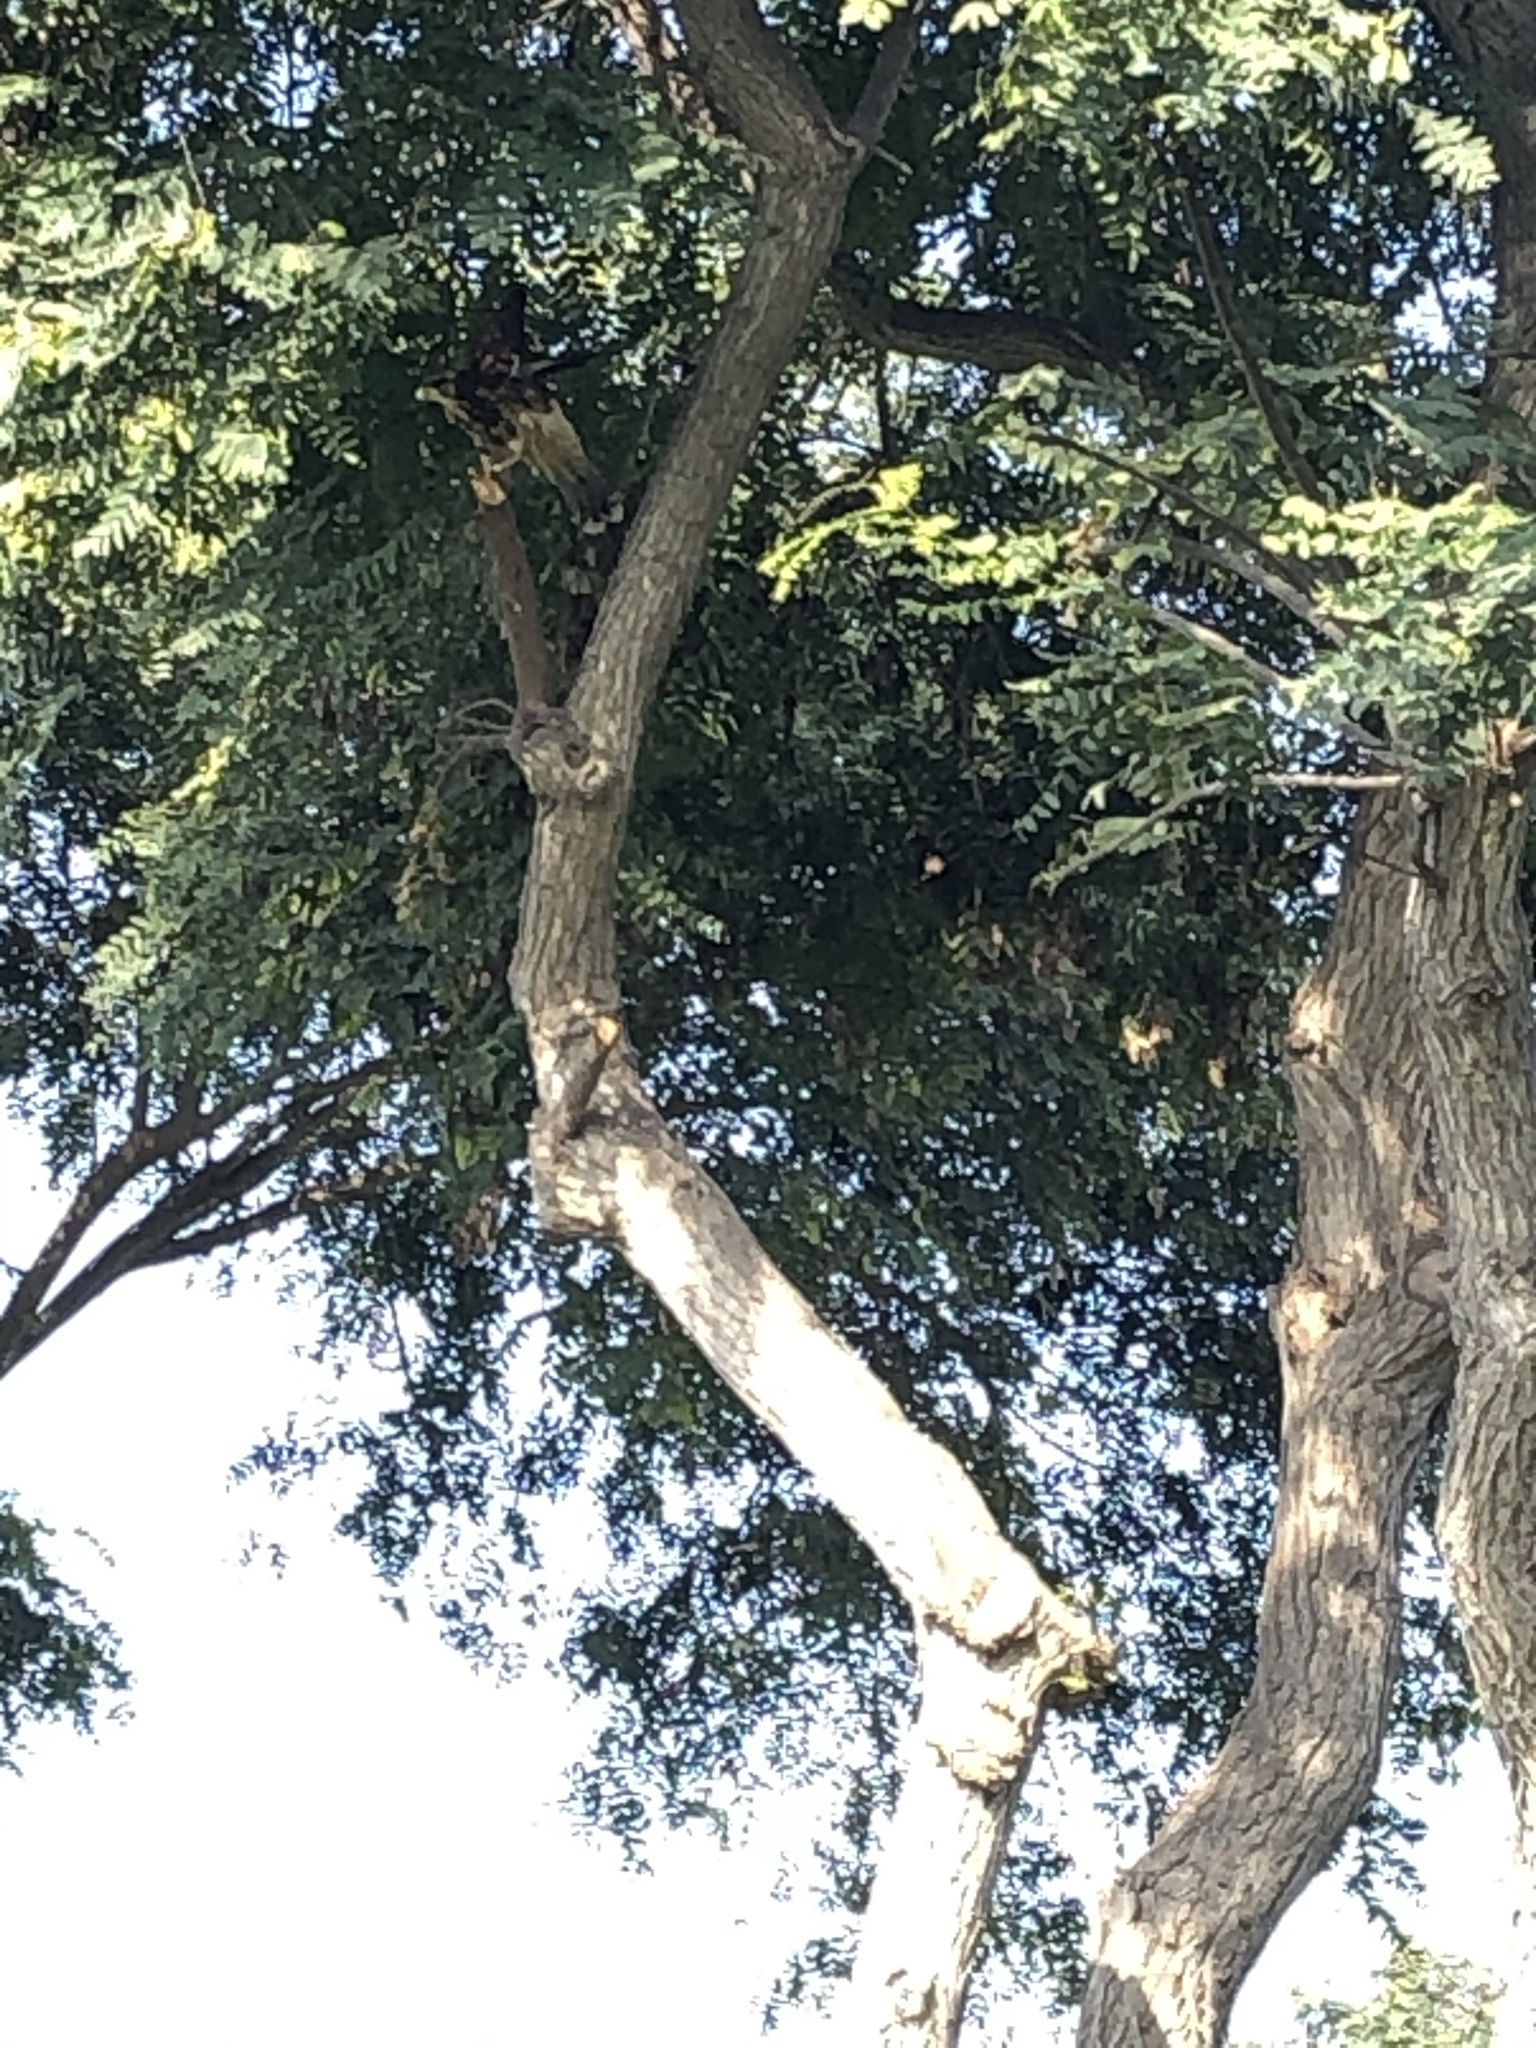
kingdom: Animalia
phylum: Chordata
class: Aves
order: Accipitriformes
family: Accipitridae
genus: Parabuteo
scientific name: Parabuteo unicinctus
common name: Harris's hawk
